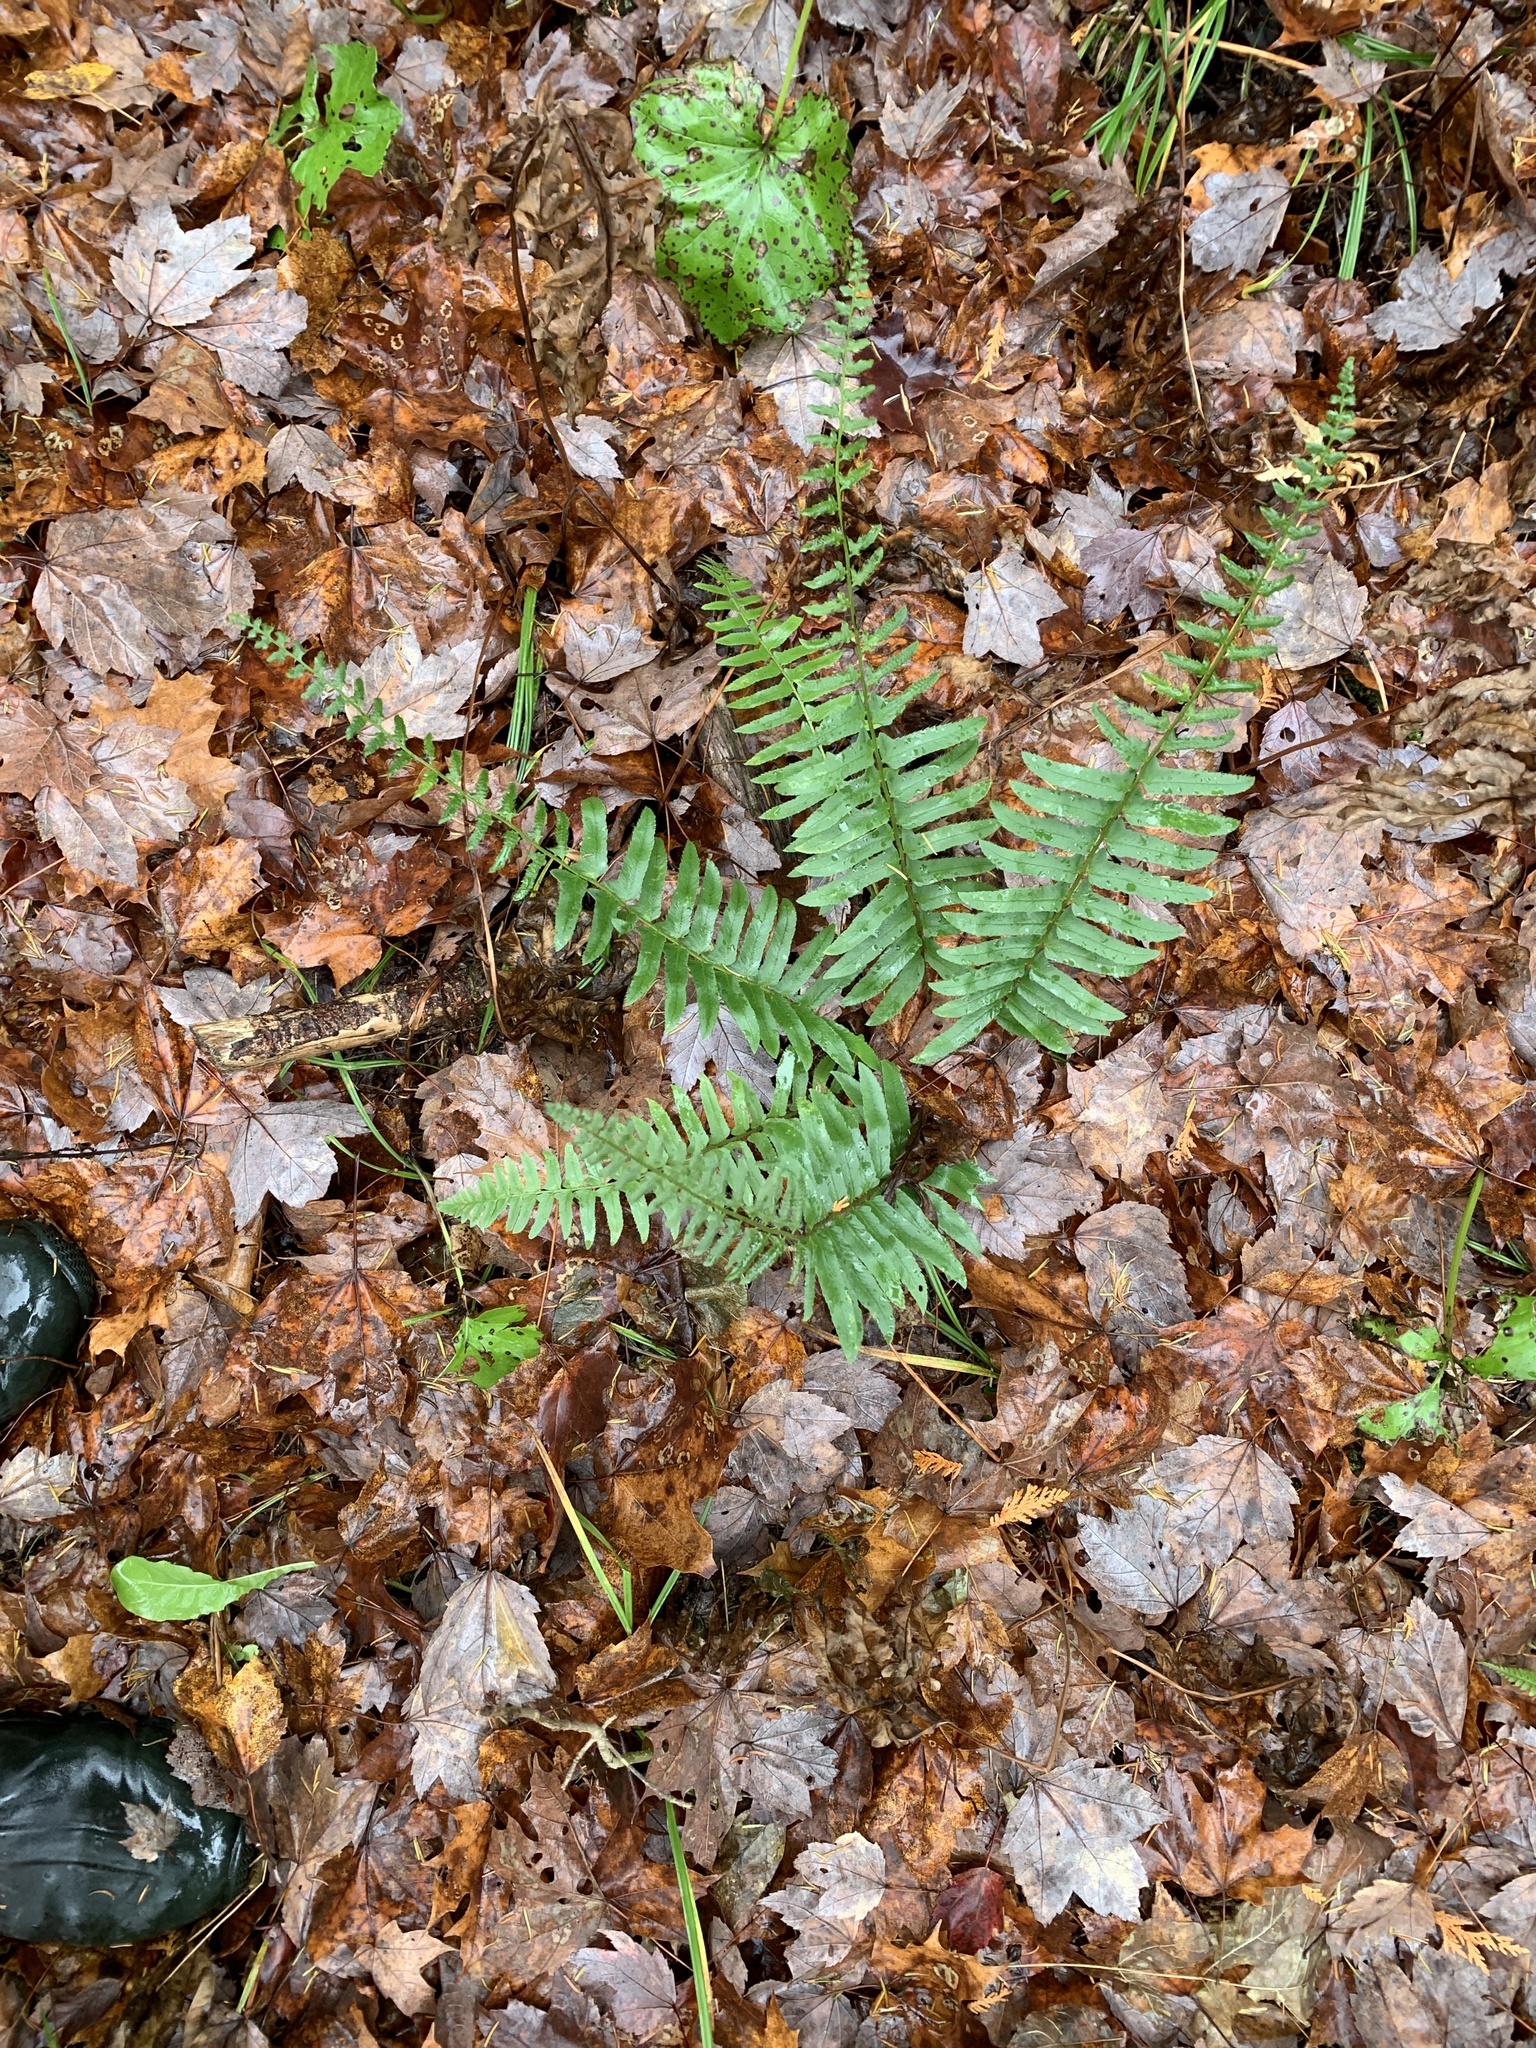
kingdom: Plantae
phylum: Tracheophyta
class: Polypodiopsida
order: Polypodiales
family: Dryopteridaceae
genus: Polystichum
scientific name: Polystichum acrostichoides
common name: Christmas fern
